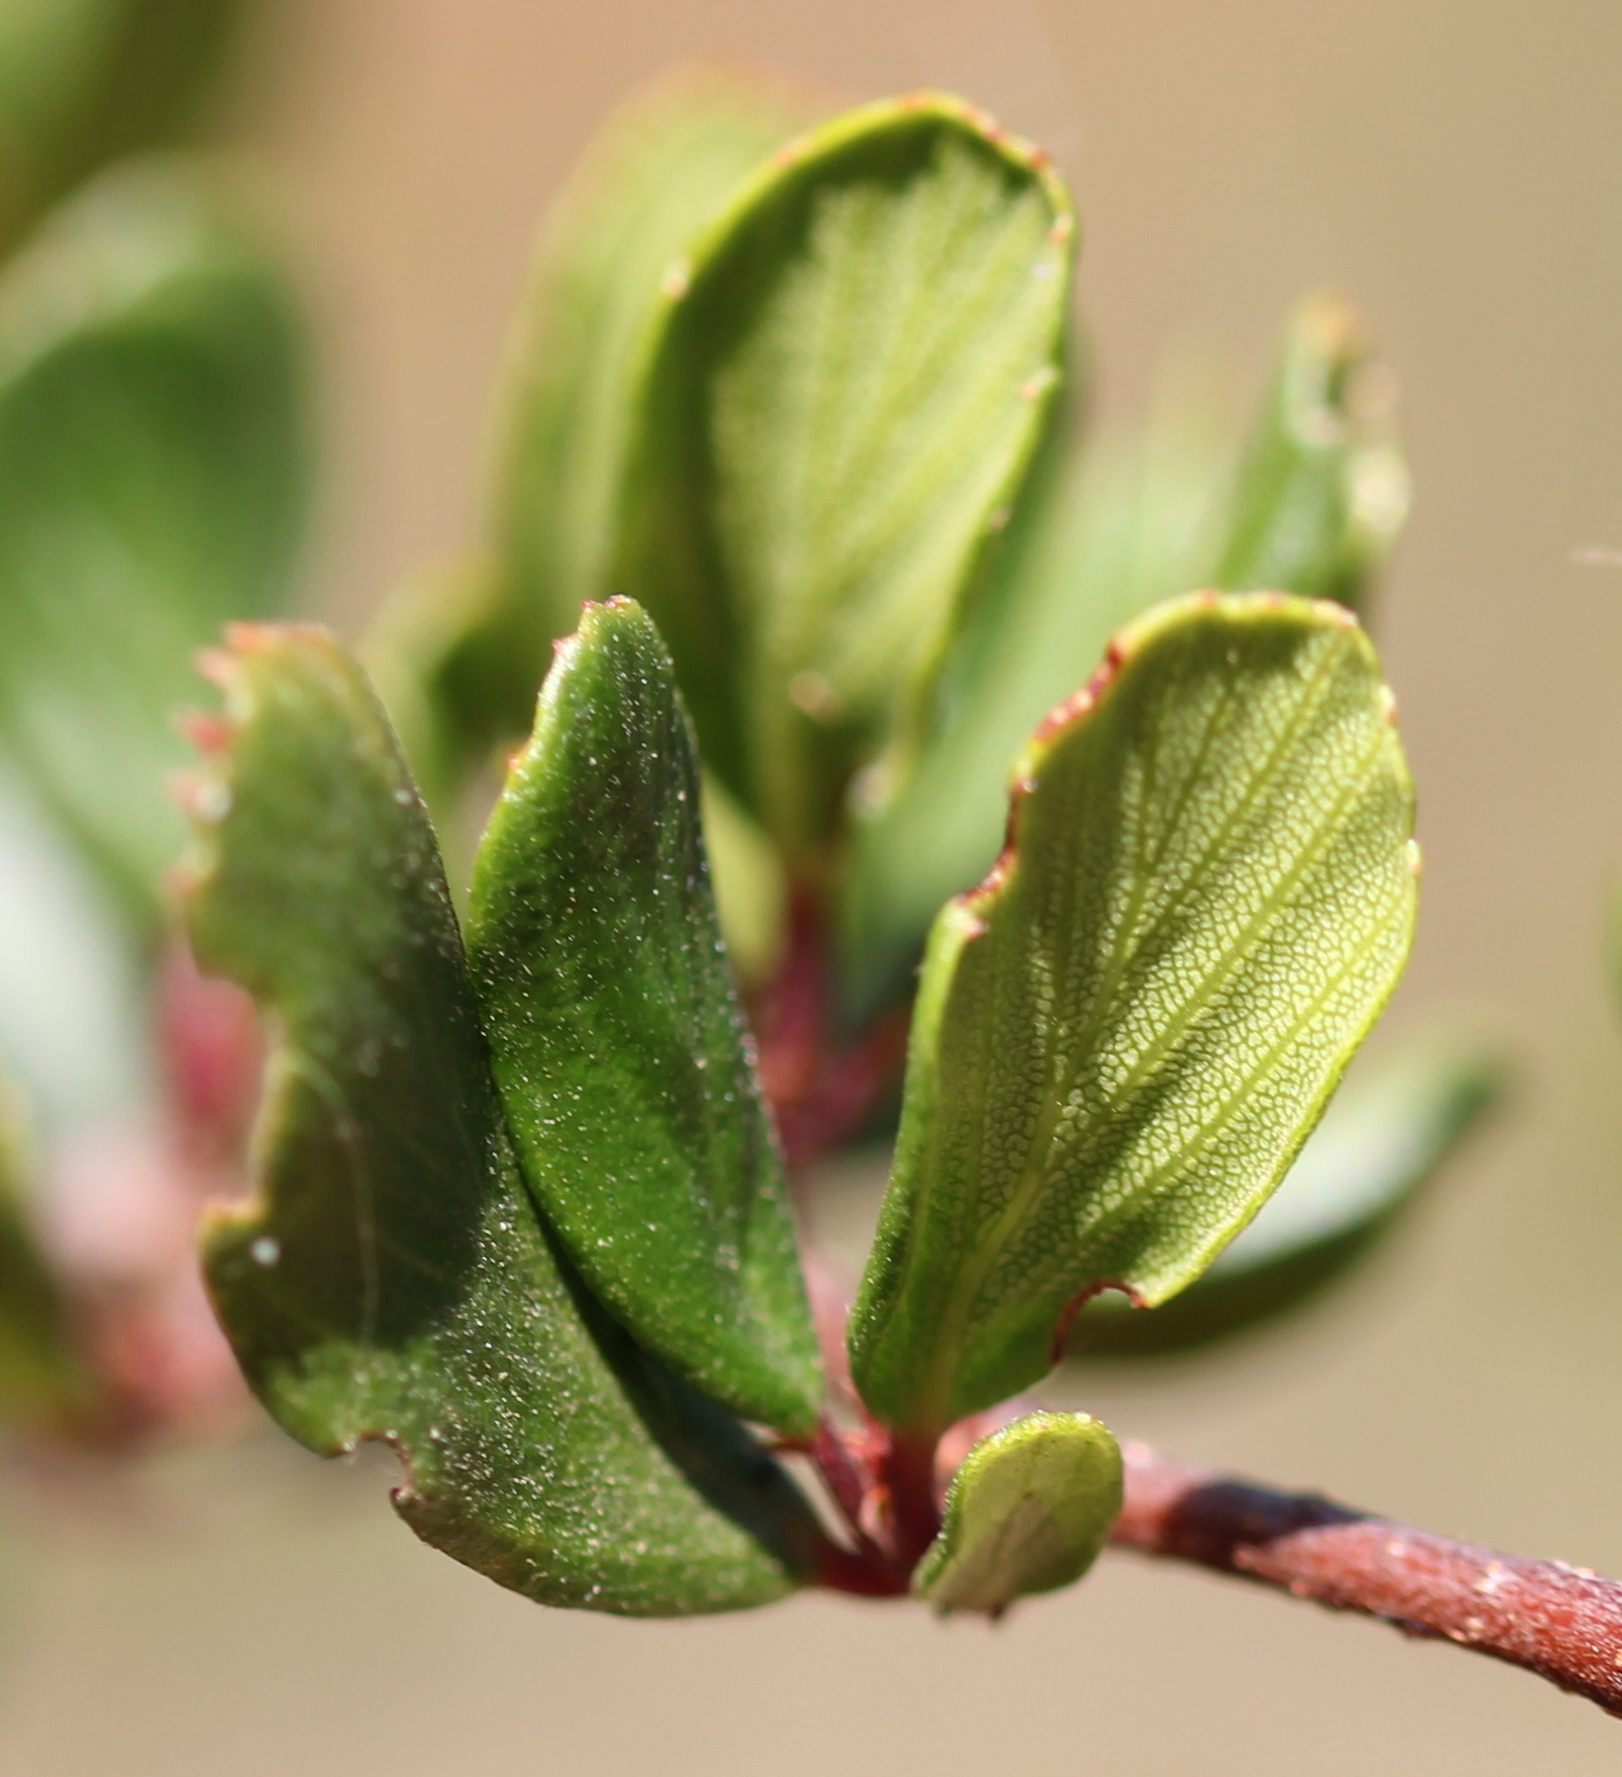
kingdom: Plantae
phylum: Tracheophyta
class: Magnoliopsida
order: Rosales
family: Rosaceae
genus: Cercocarpus
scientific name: Cercocarpus montanus
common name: Alder-leaf cercocarpus
